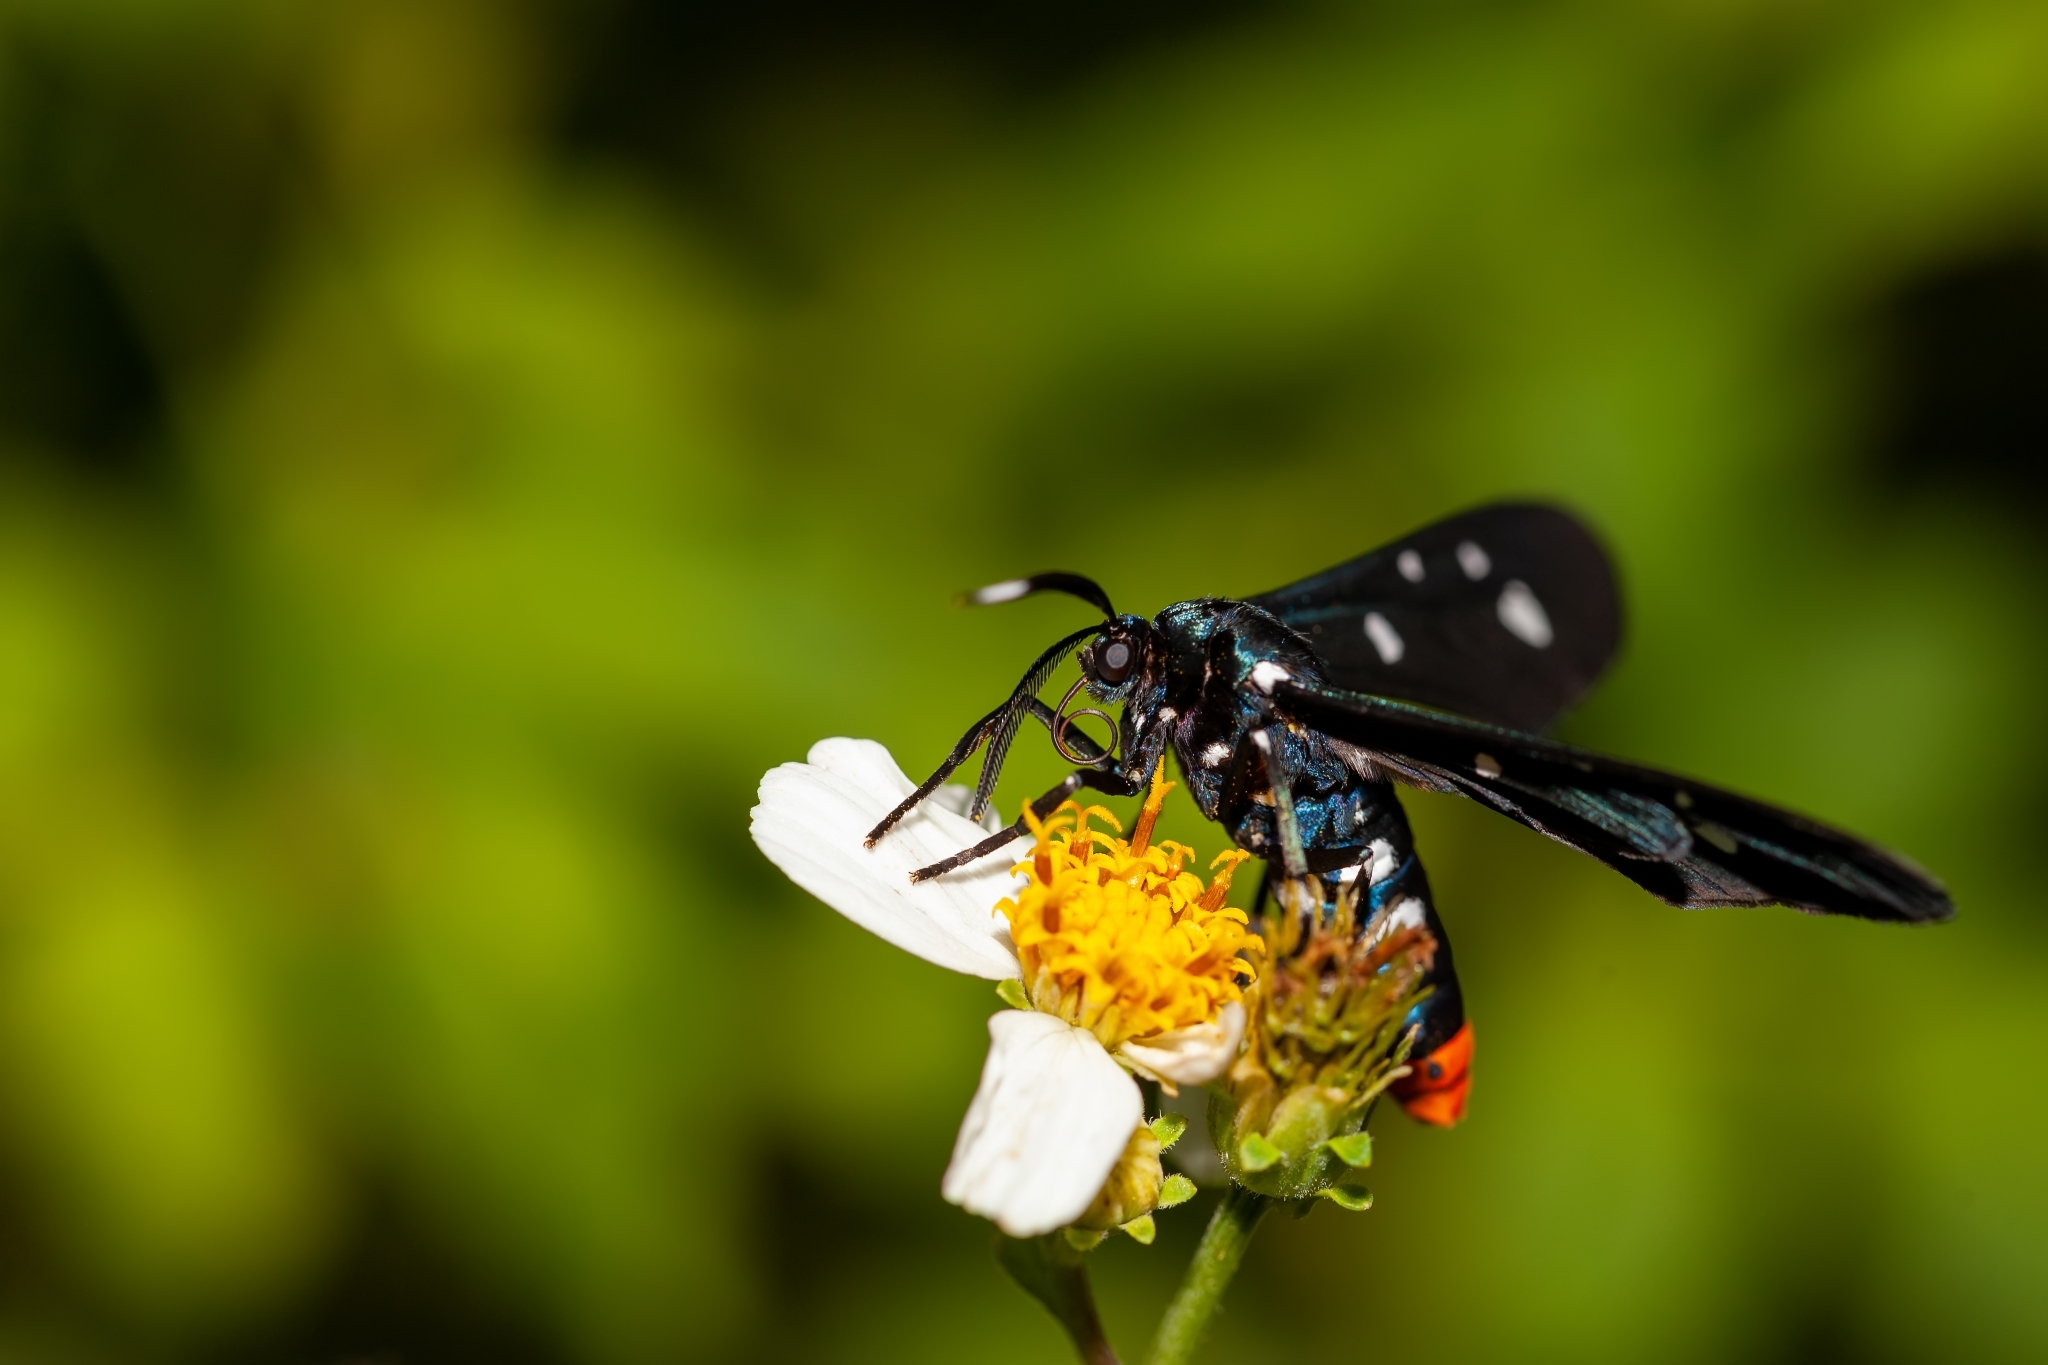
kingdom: Animalia
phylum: Arthropoda
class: Insecta
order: Lepidoptera
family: Erebidae
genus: Syntomeida
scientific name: Syntomeida epilais
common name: Polka-dot wasp moth
